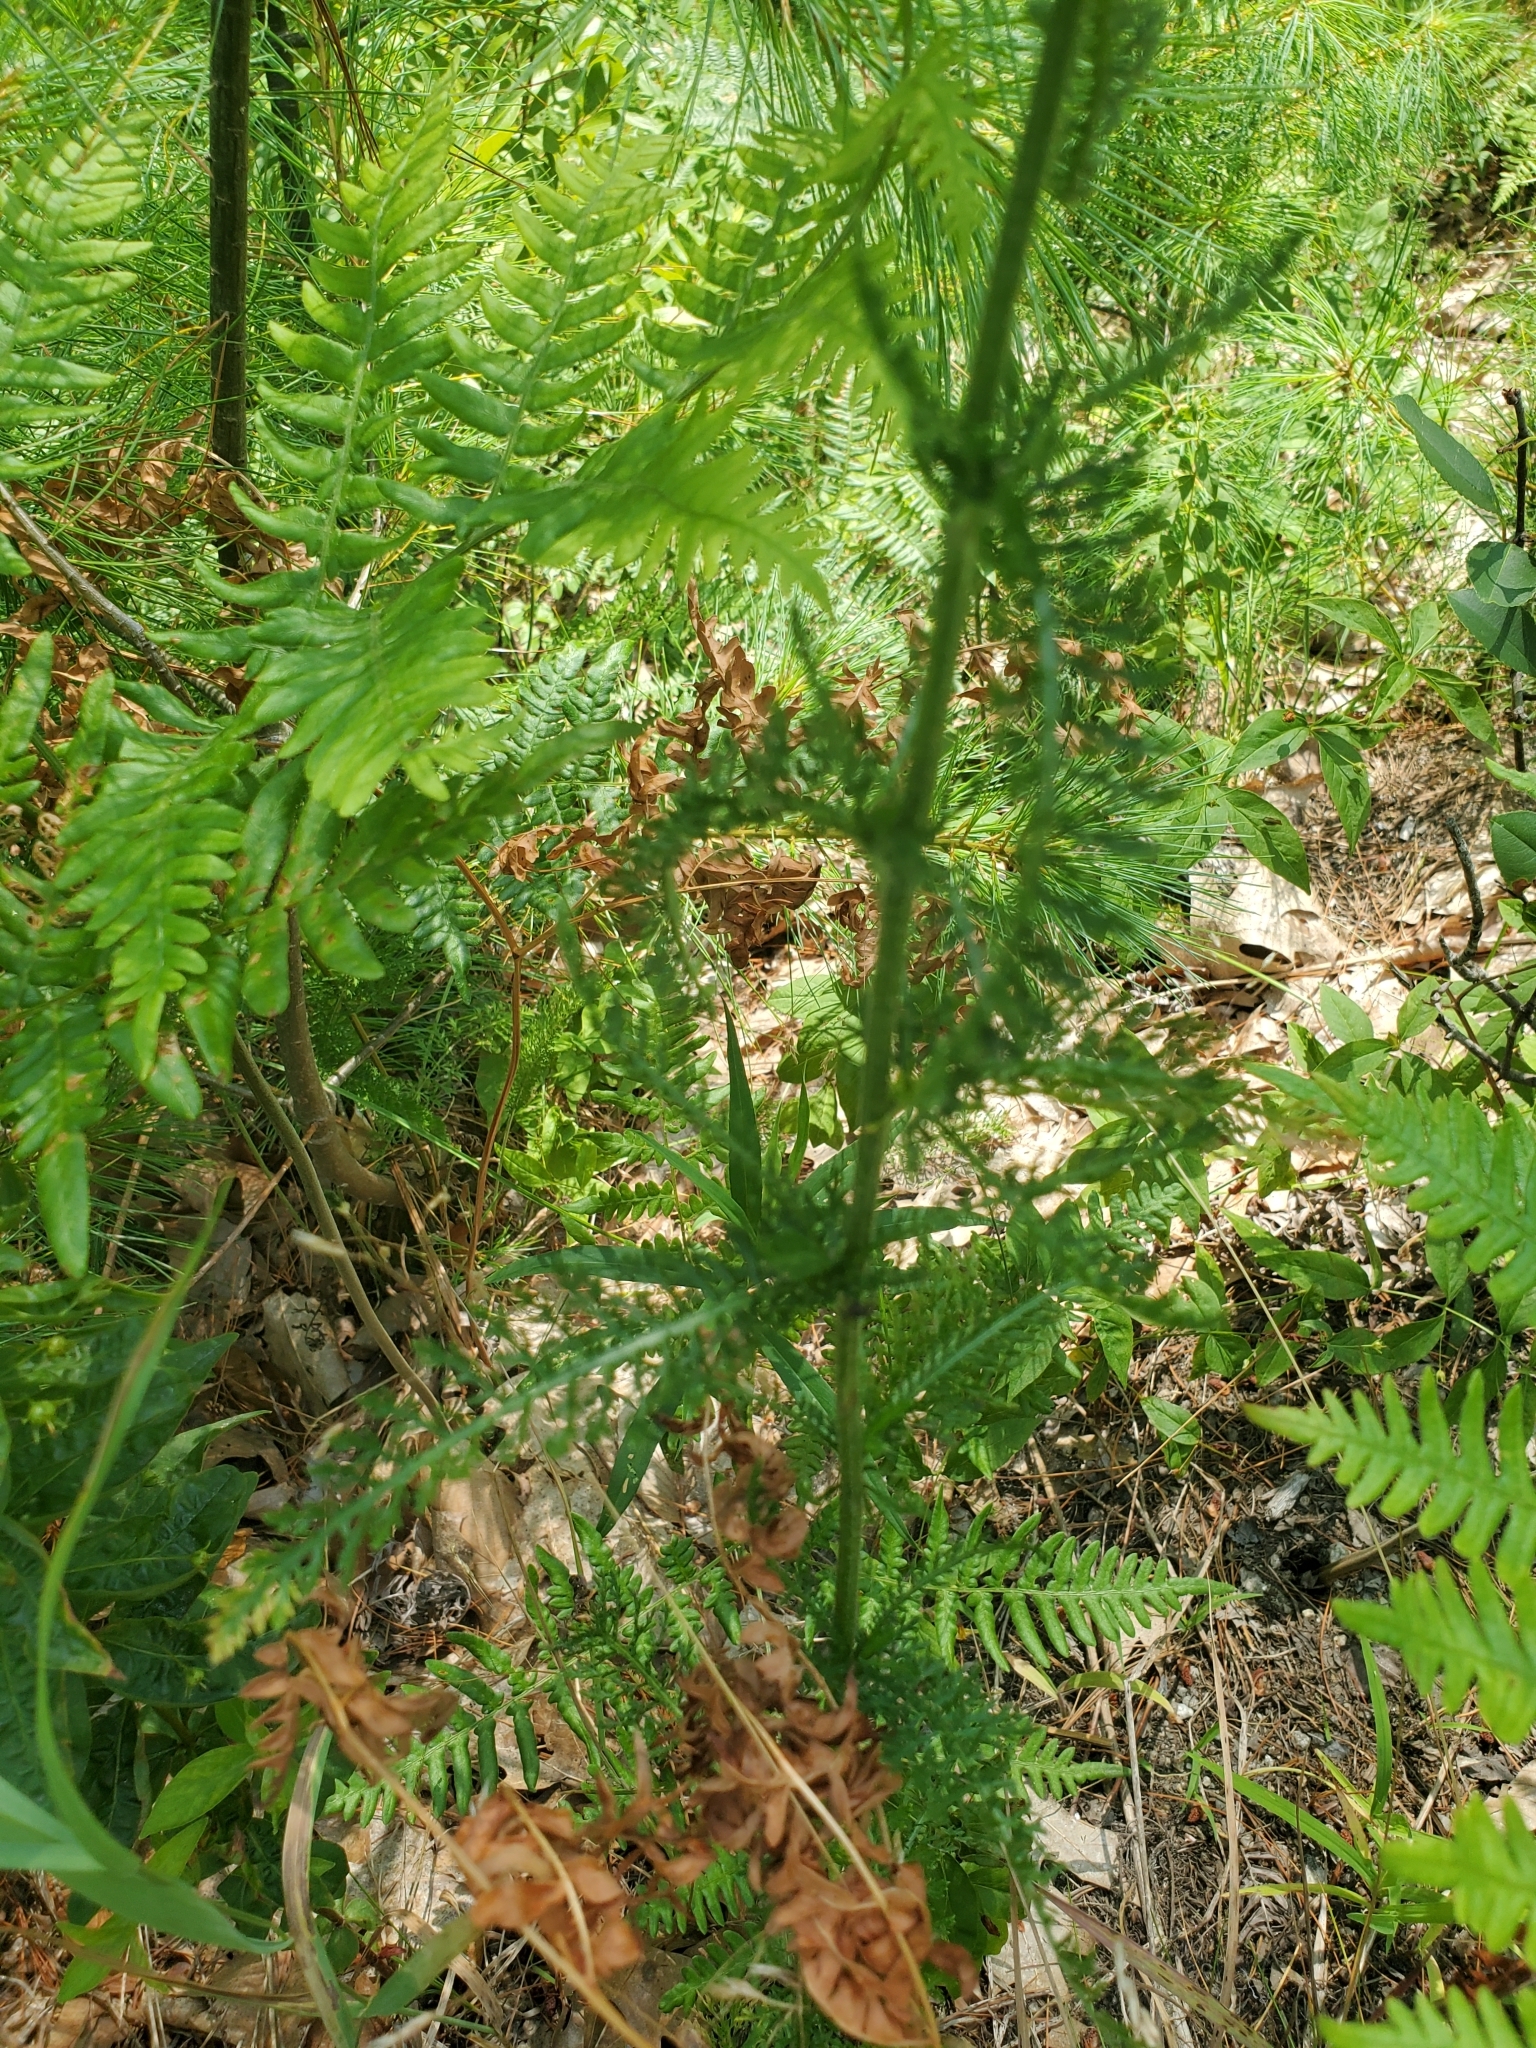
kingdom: Plantae
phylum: Tracheophyta
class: Magnoliopsida
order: Asterales
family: Asteraceae
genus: Achillea
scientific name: Achillea millefolium
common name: Yarrow
